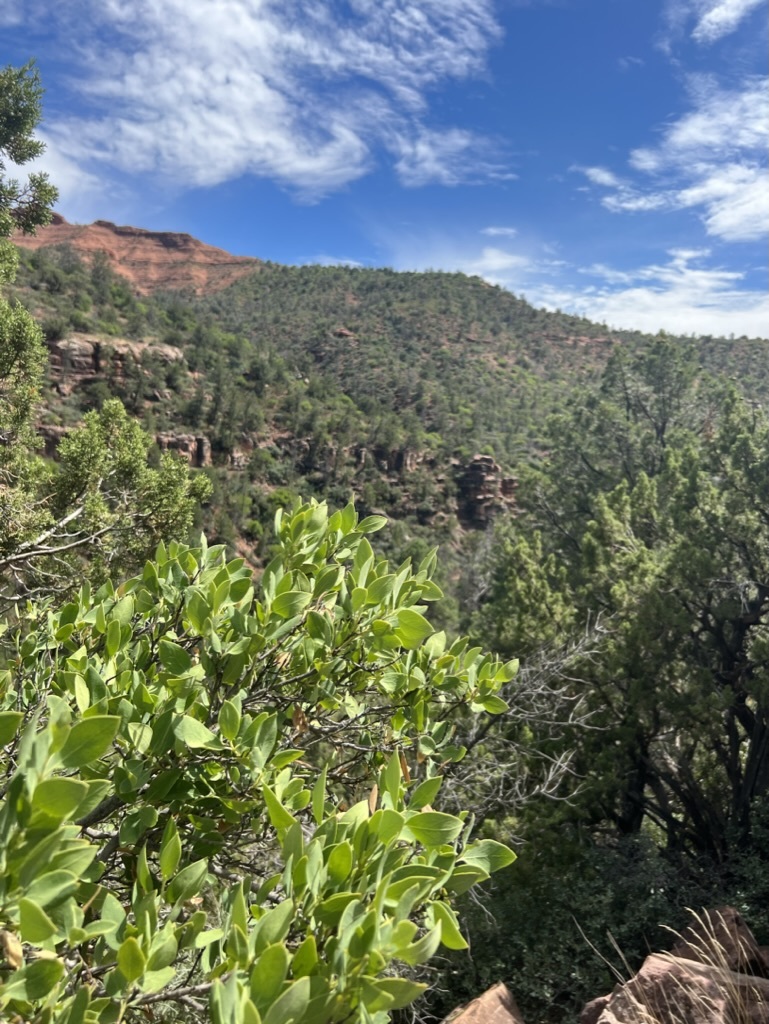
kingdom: Plantae
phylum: Tracheophyta
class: Magnoliopsida
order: Garryales
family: Garryaceae
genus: Garrya
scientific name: Garrya wrightii
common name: Wright's silktassel
